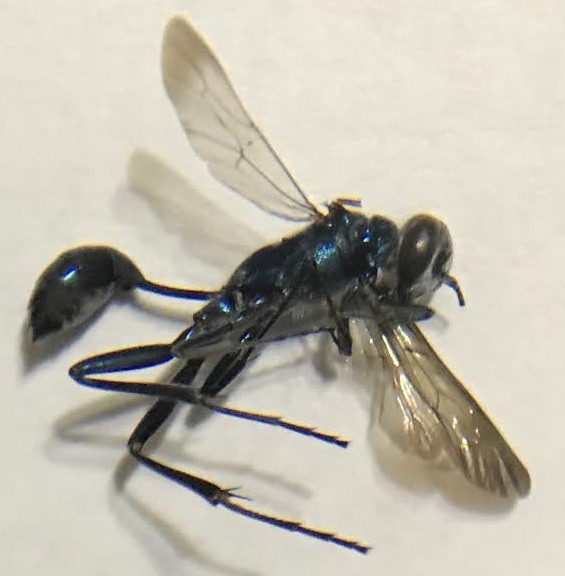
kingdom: Animalia
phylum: Arthropoda
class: Insecta
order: Hymenoptera
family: Sphecidae
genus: Chalybion
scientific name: Chalybion bengalense
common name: Mud dauber
